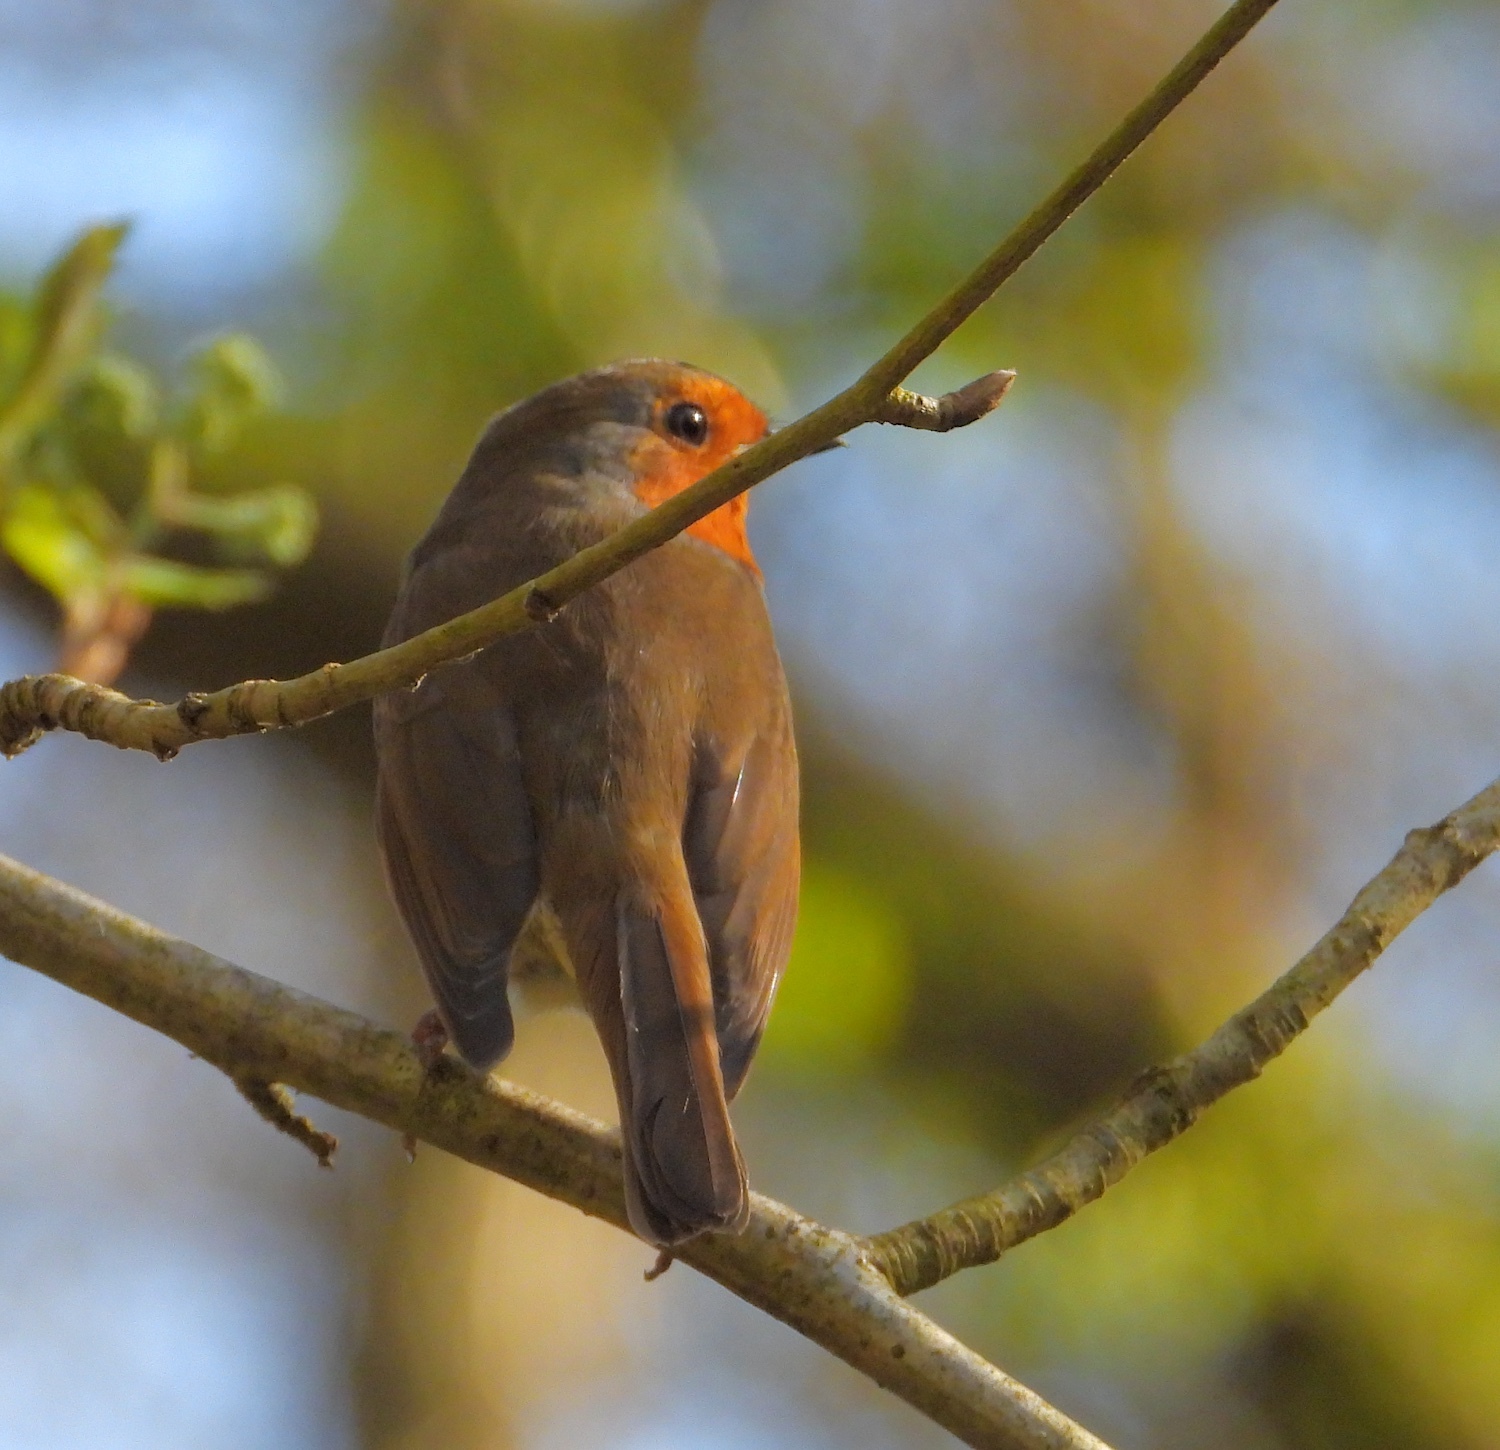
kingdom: Animalia
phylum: Chordata
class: Aves
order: Passeriformes
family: Muscicapidae
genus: Erithacus
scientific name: Erithacus rubecula
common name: European robin
